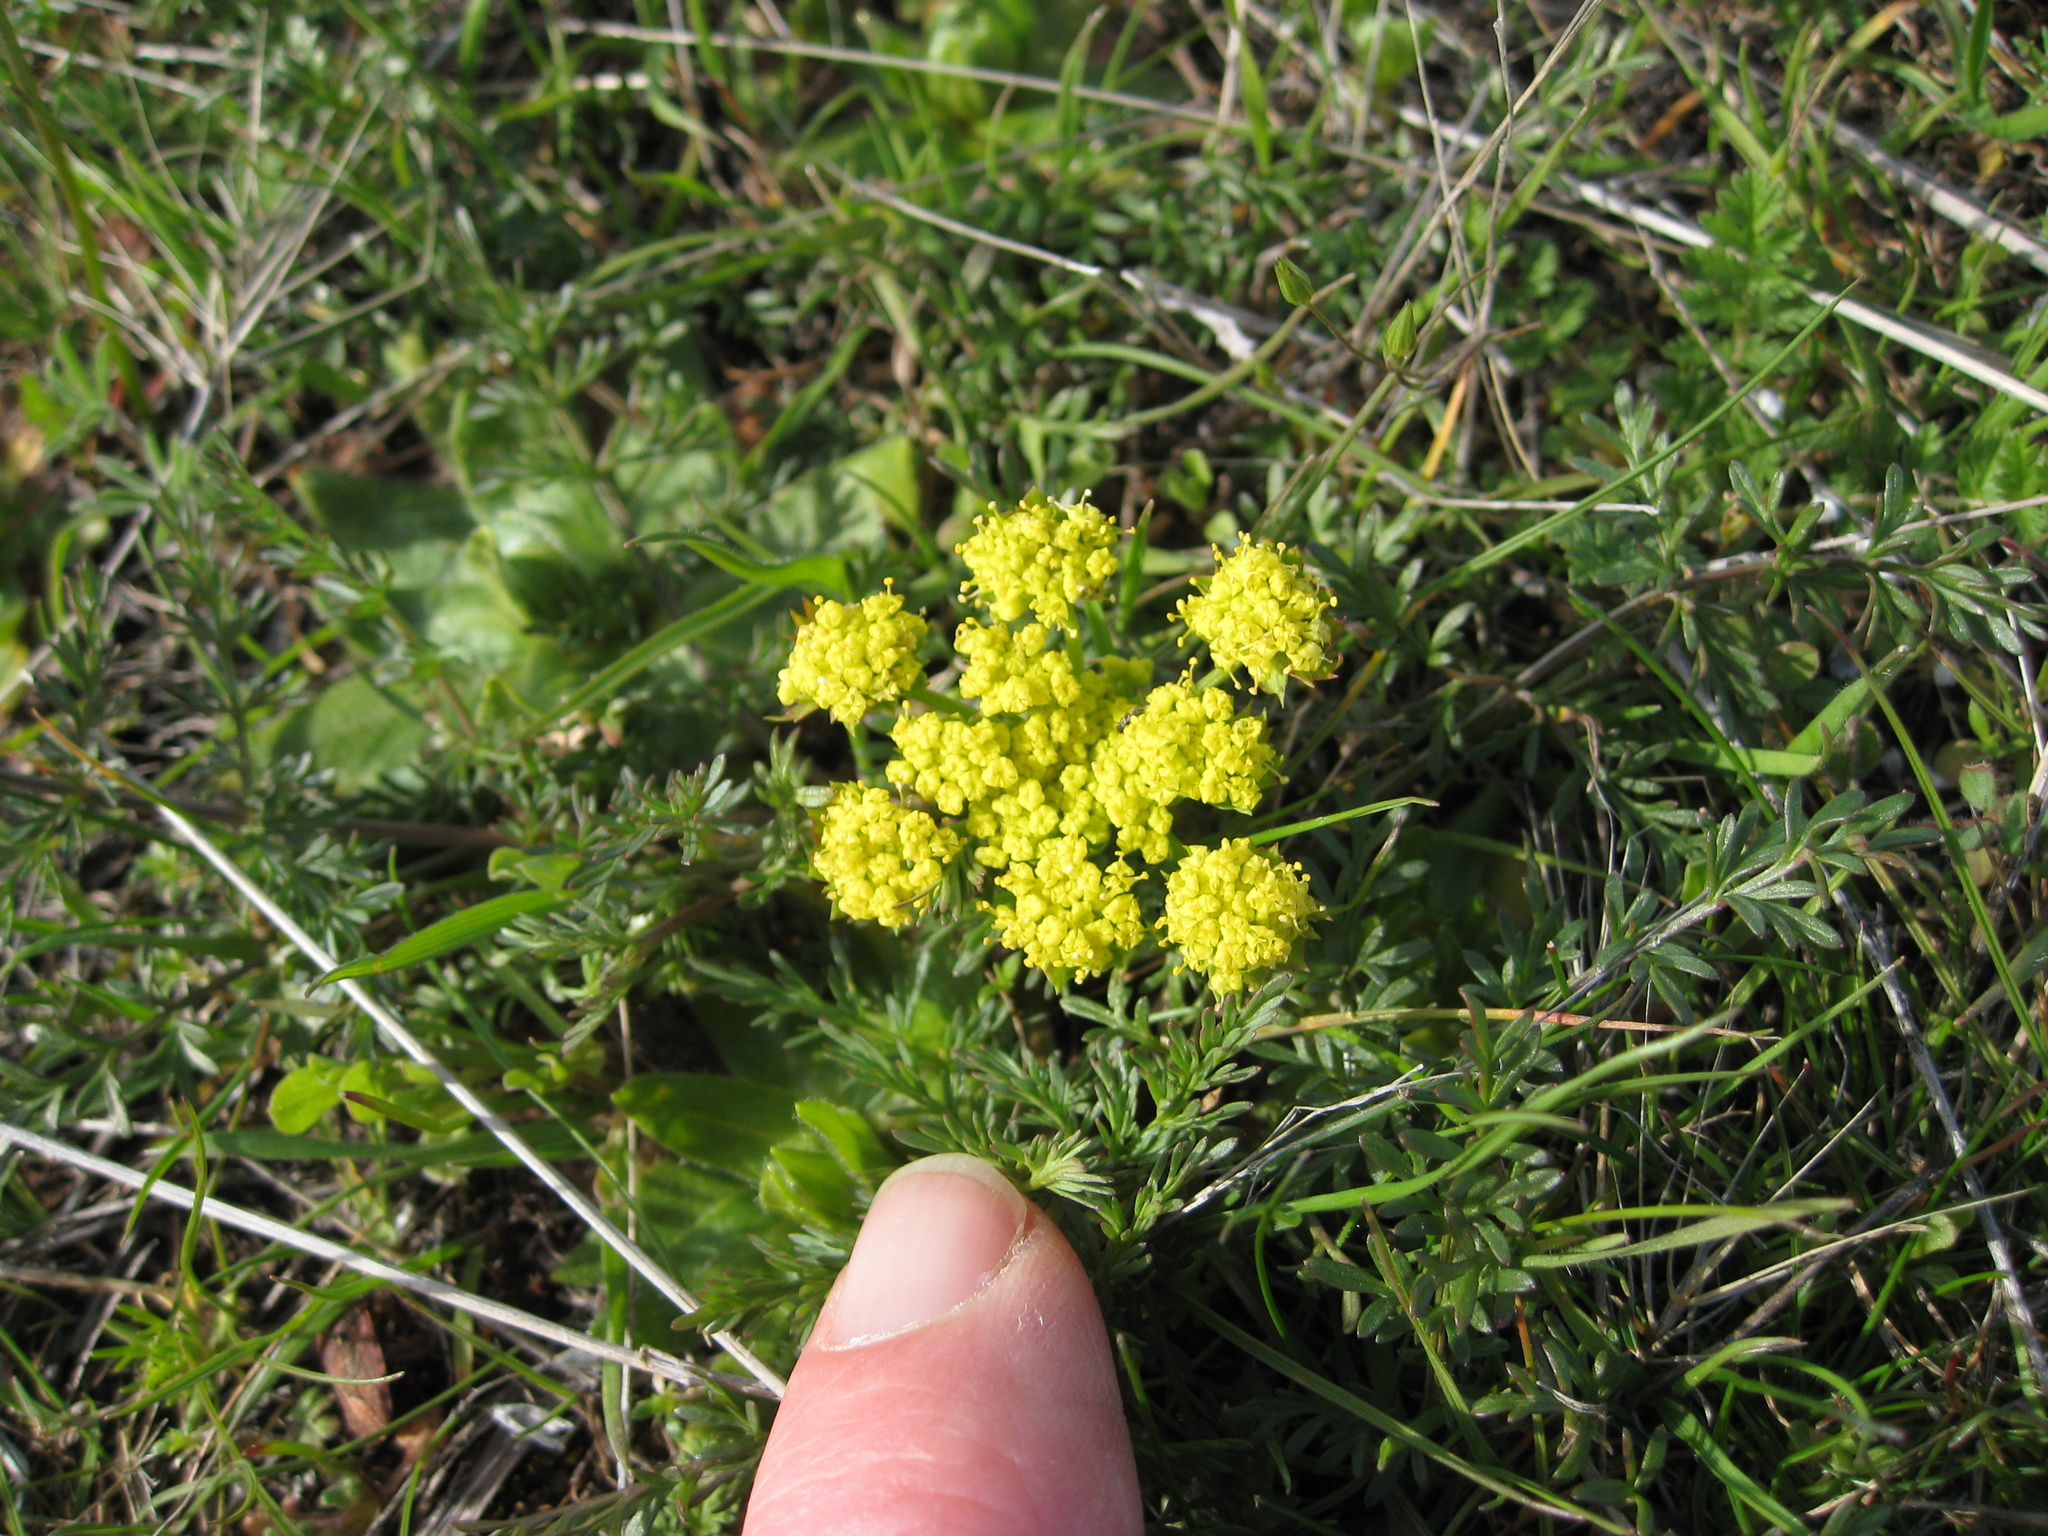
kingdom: Plantae
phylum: Tracheophyta
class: Magnoliopsida
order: Apiales
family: Apiaceae
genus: Lomatium
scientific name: Lomatium utriculatum
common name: Fine-leaf desert-parsley
